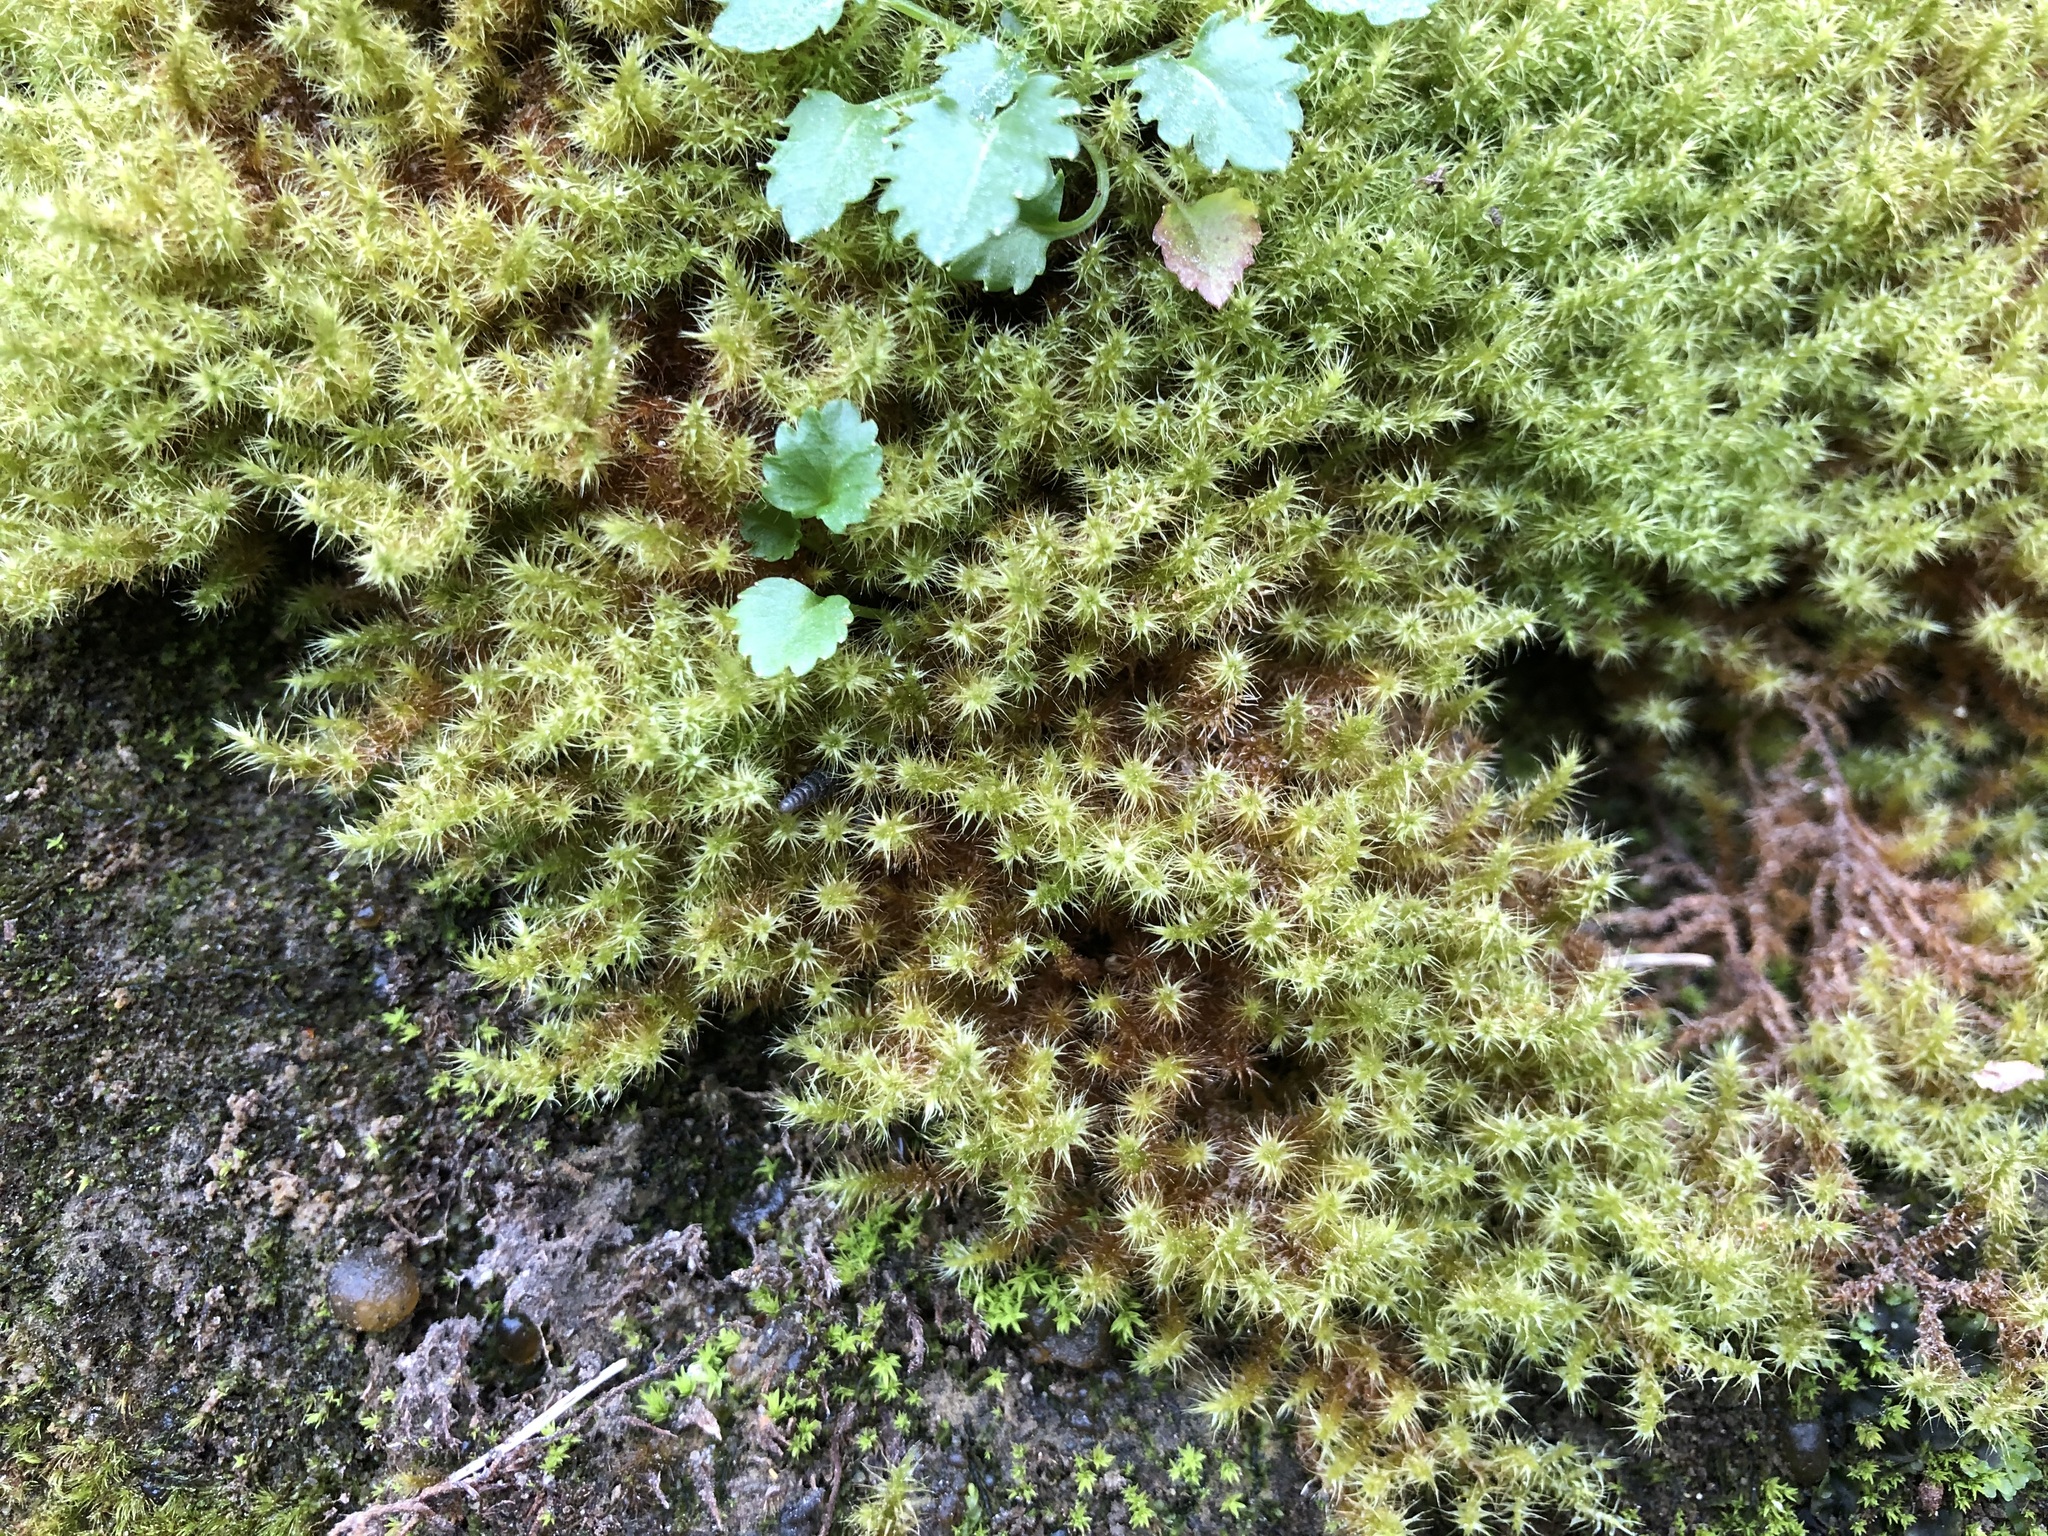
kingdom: Plantae
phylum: Bryophyta
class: Bryopsida
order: Hypnales
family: Amblystegiaceae
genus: Campylium
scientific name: Campylium protensum
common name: Dull starry fen moss
